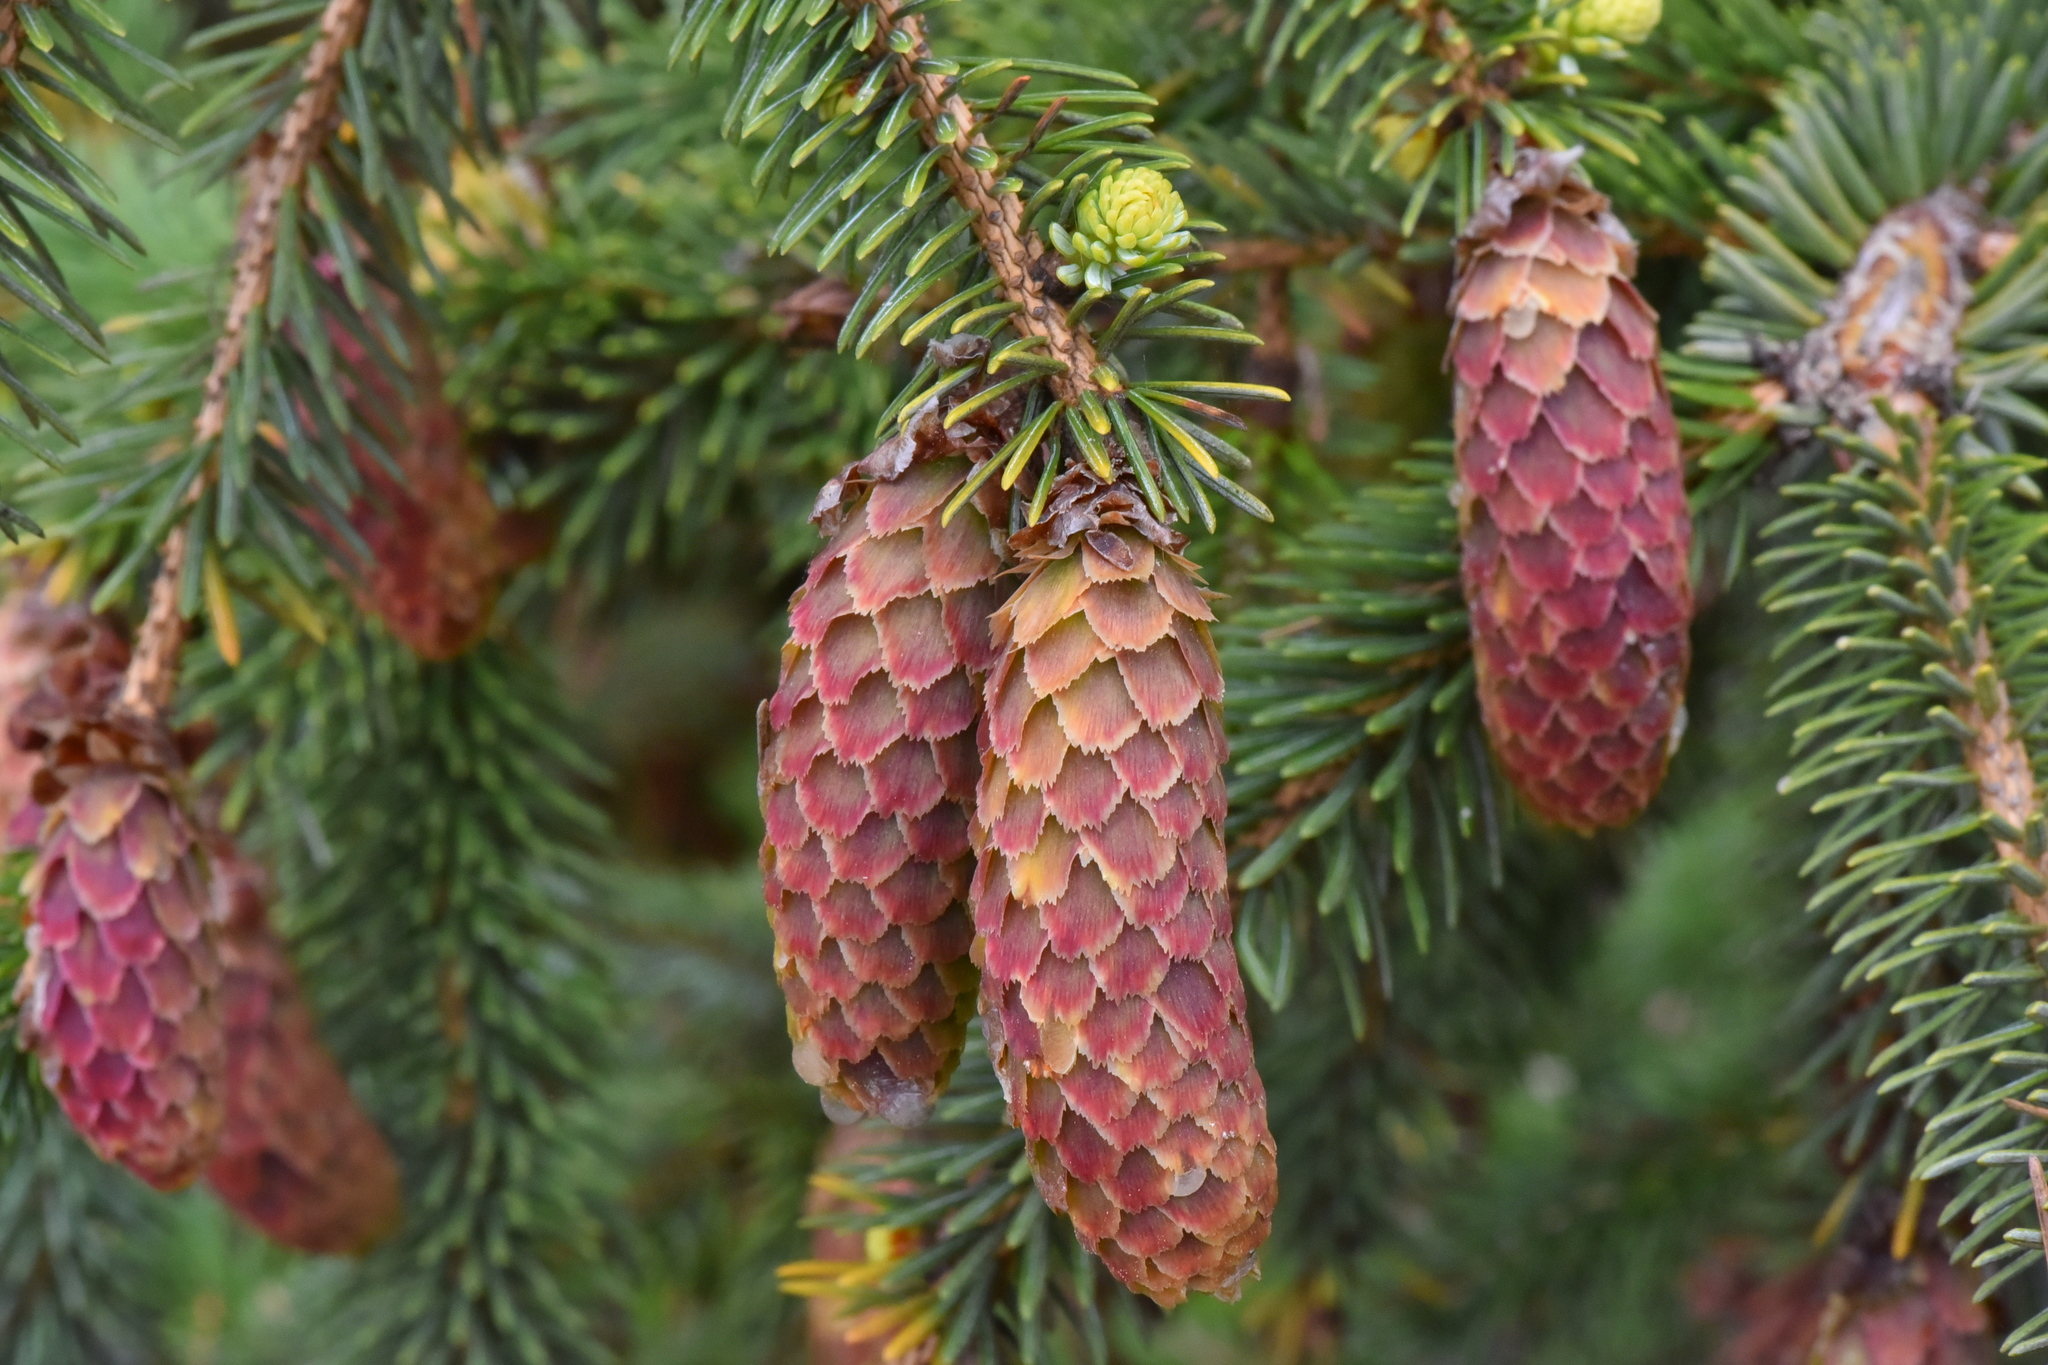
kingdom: Plantae
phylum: Tracheophyta
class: Pinopsida
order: Pinales
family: Pinaceae
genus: Picea
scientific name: Picea sitchensis
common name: Sitka spruce
